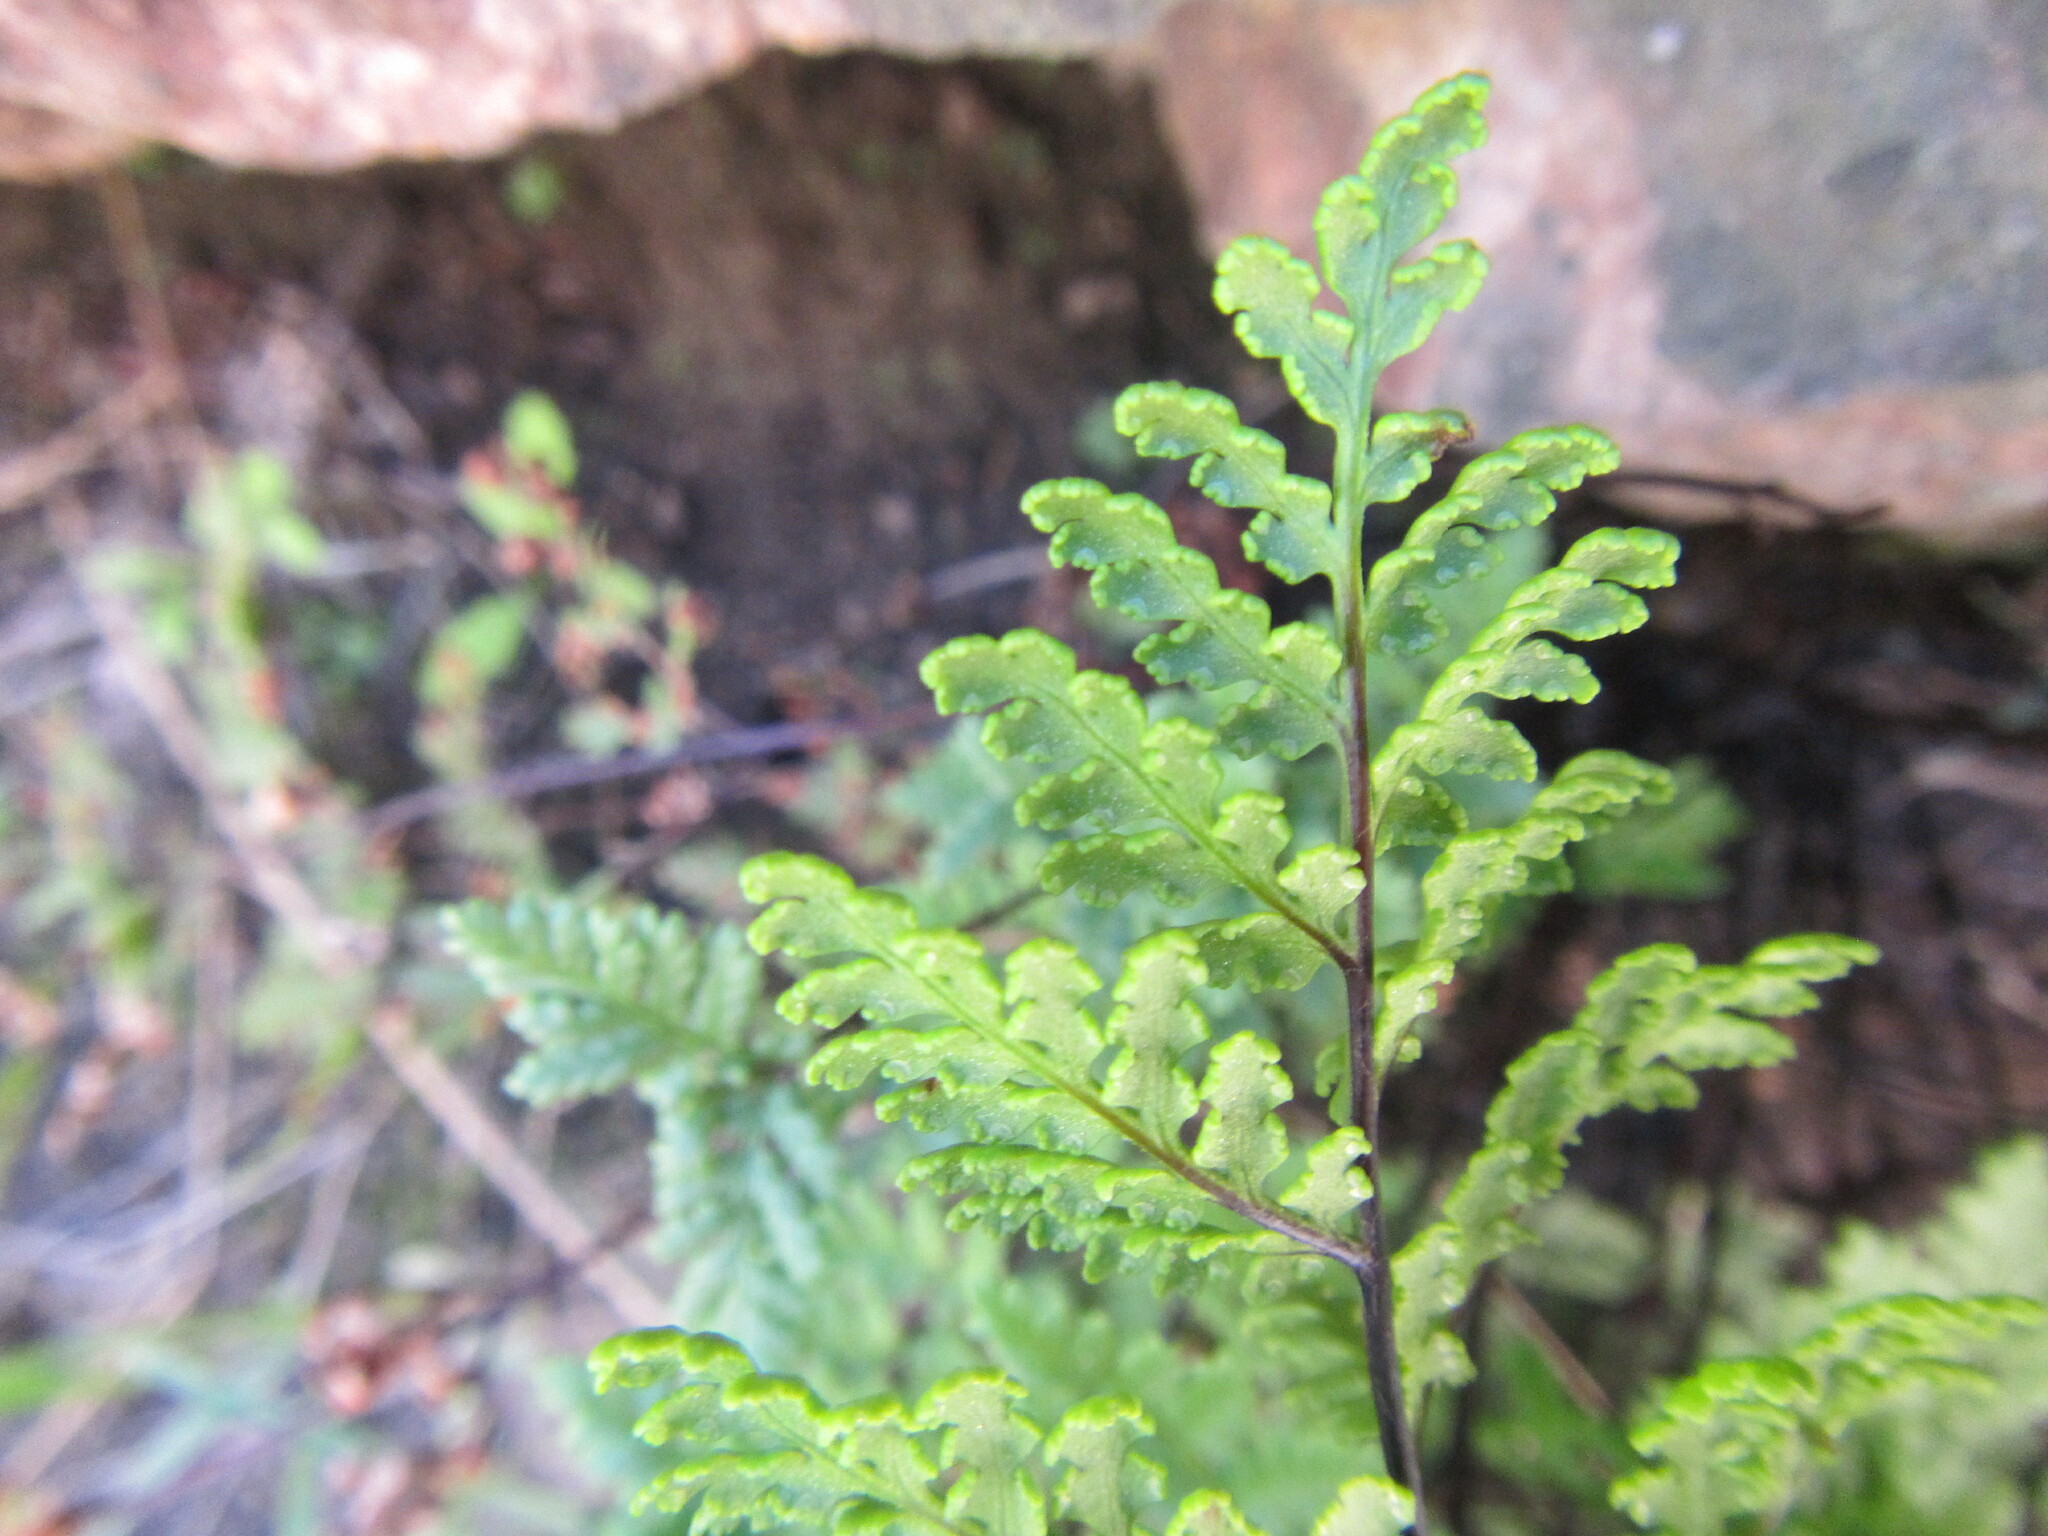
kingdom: Plantae
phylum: Tracheophyta
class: Polypodiopsida
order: Polypodiales
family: Pteridaceae
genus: Cheilanthes
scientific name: Cheilanthes multifida
